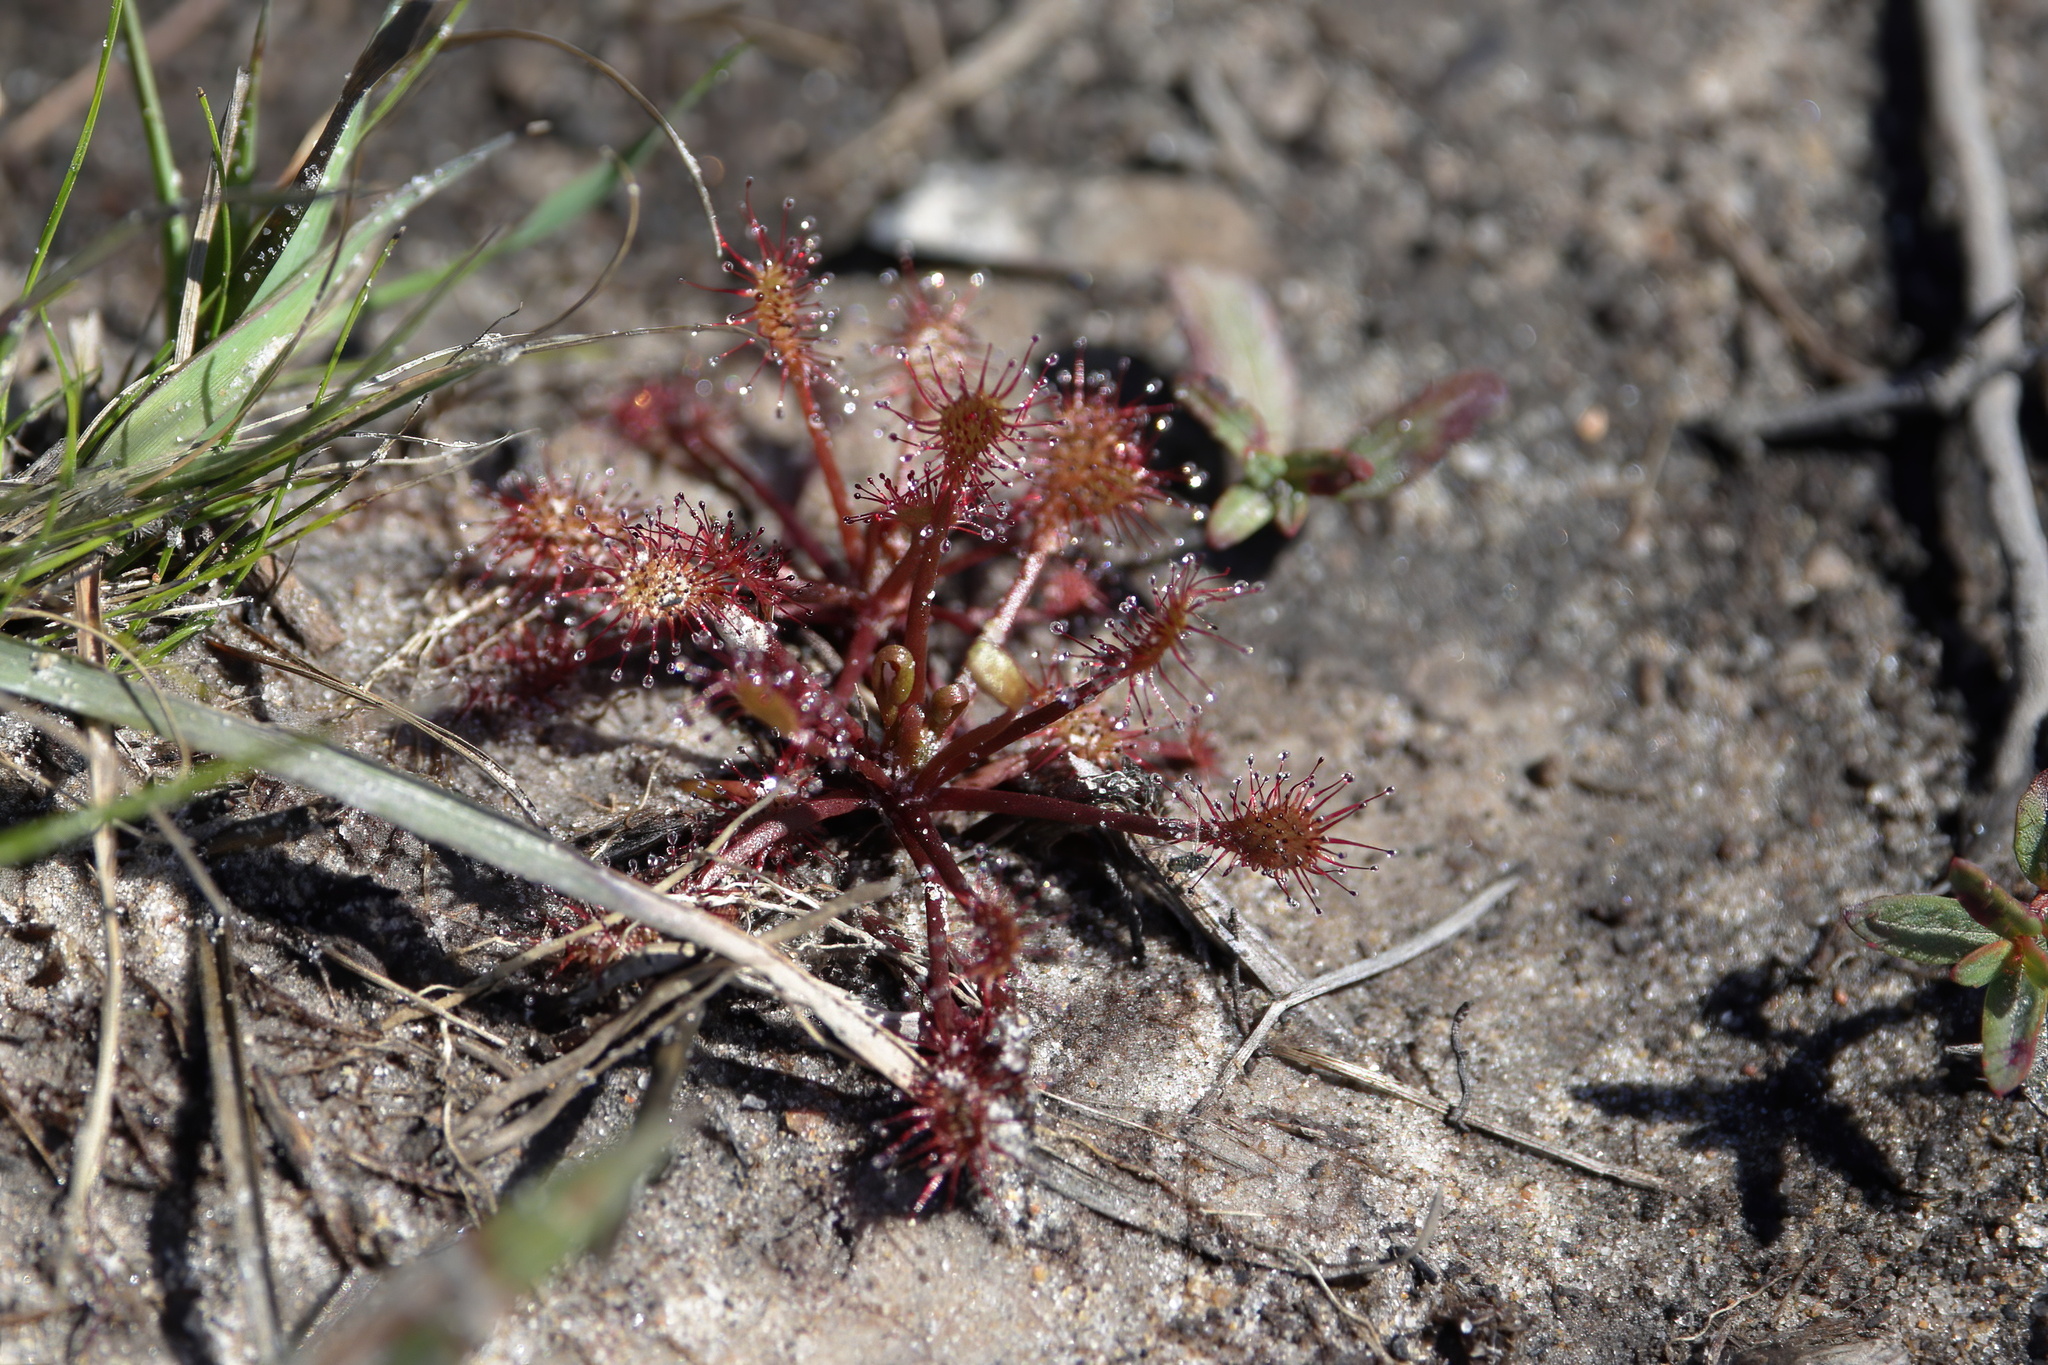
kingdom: Plantae
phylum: Tracheophyta
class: Magnoliopsida
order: Caryophyllales
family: Droseraceae
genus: Drosera
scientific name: Drosera intermedia
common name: Oblong-leaved sundew
